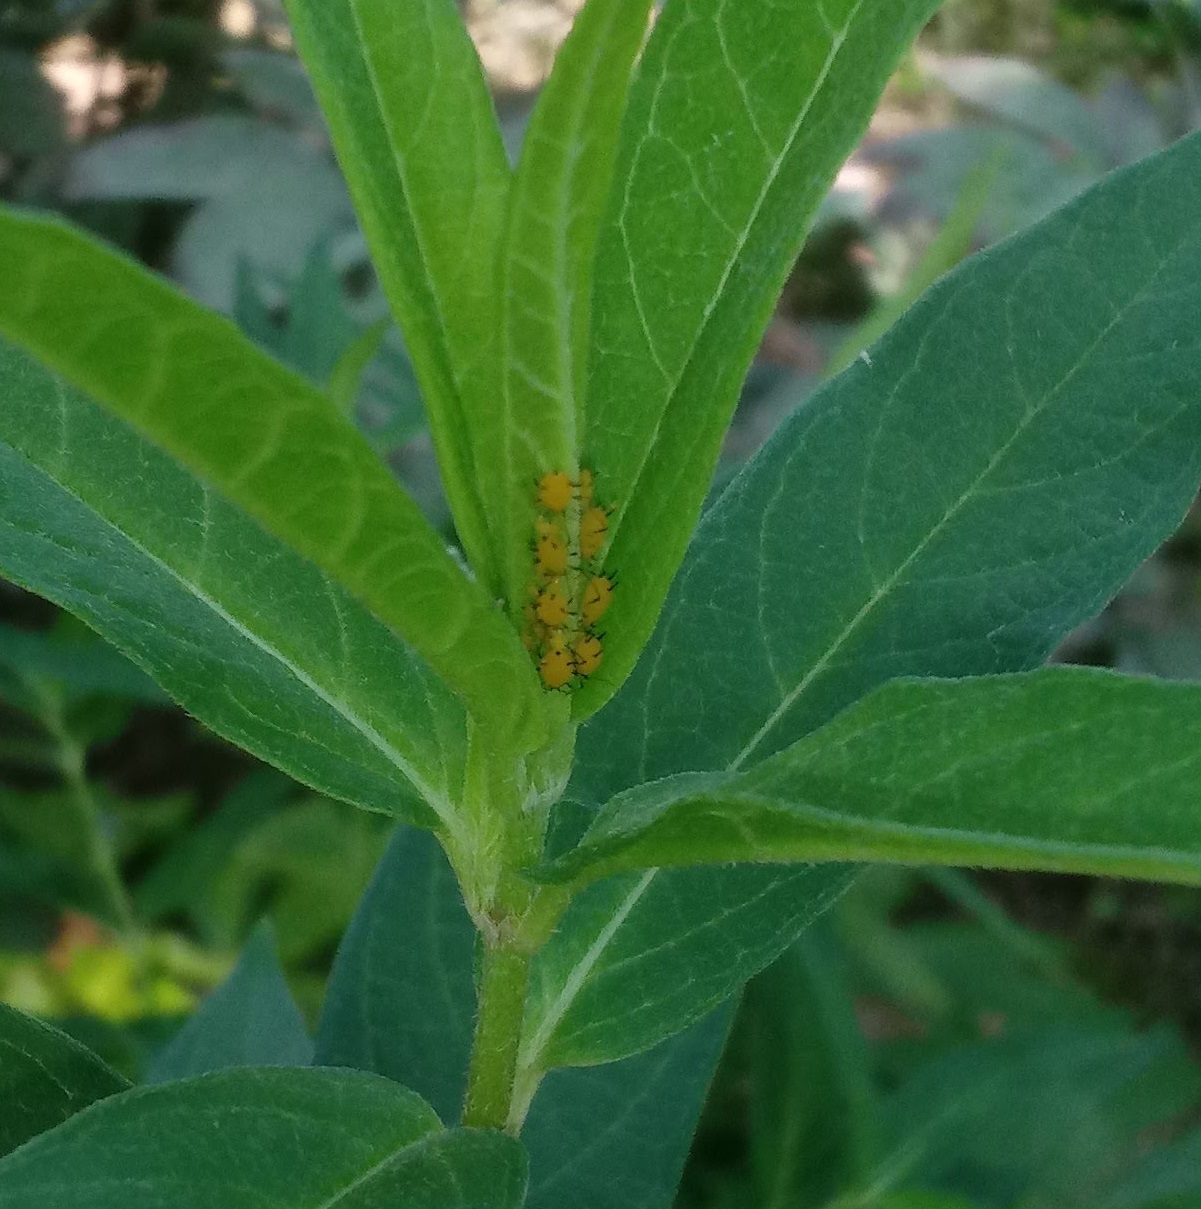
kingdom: Animalia
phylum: Arthropoda
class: Insecta
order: Hemiptera
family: Aphididae
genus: Aphis
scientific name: Aphis nerii
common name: Oleander aphid
